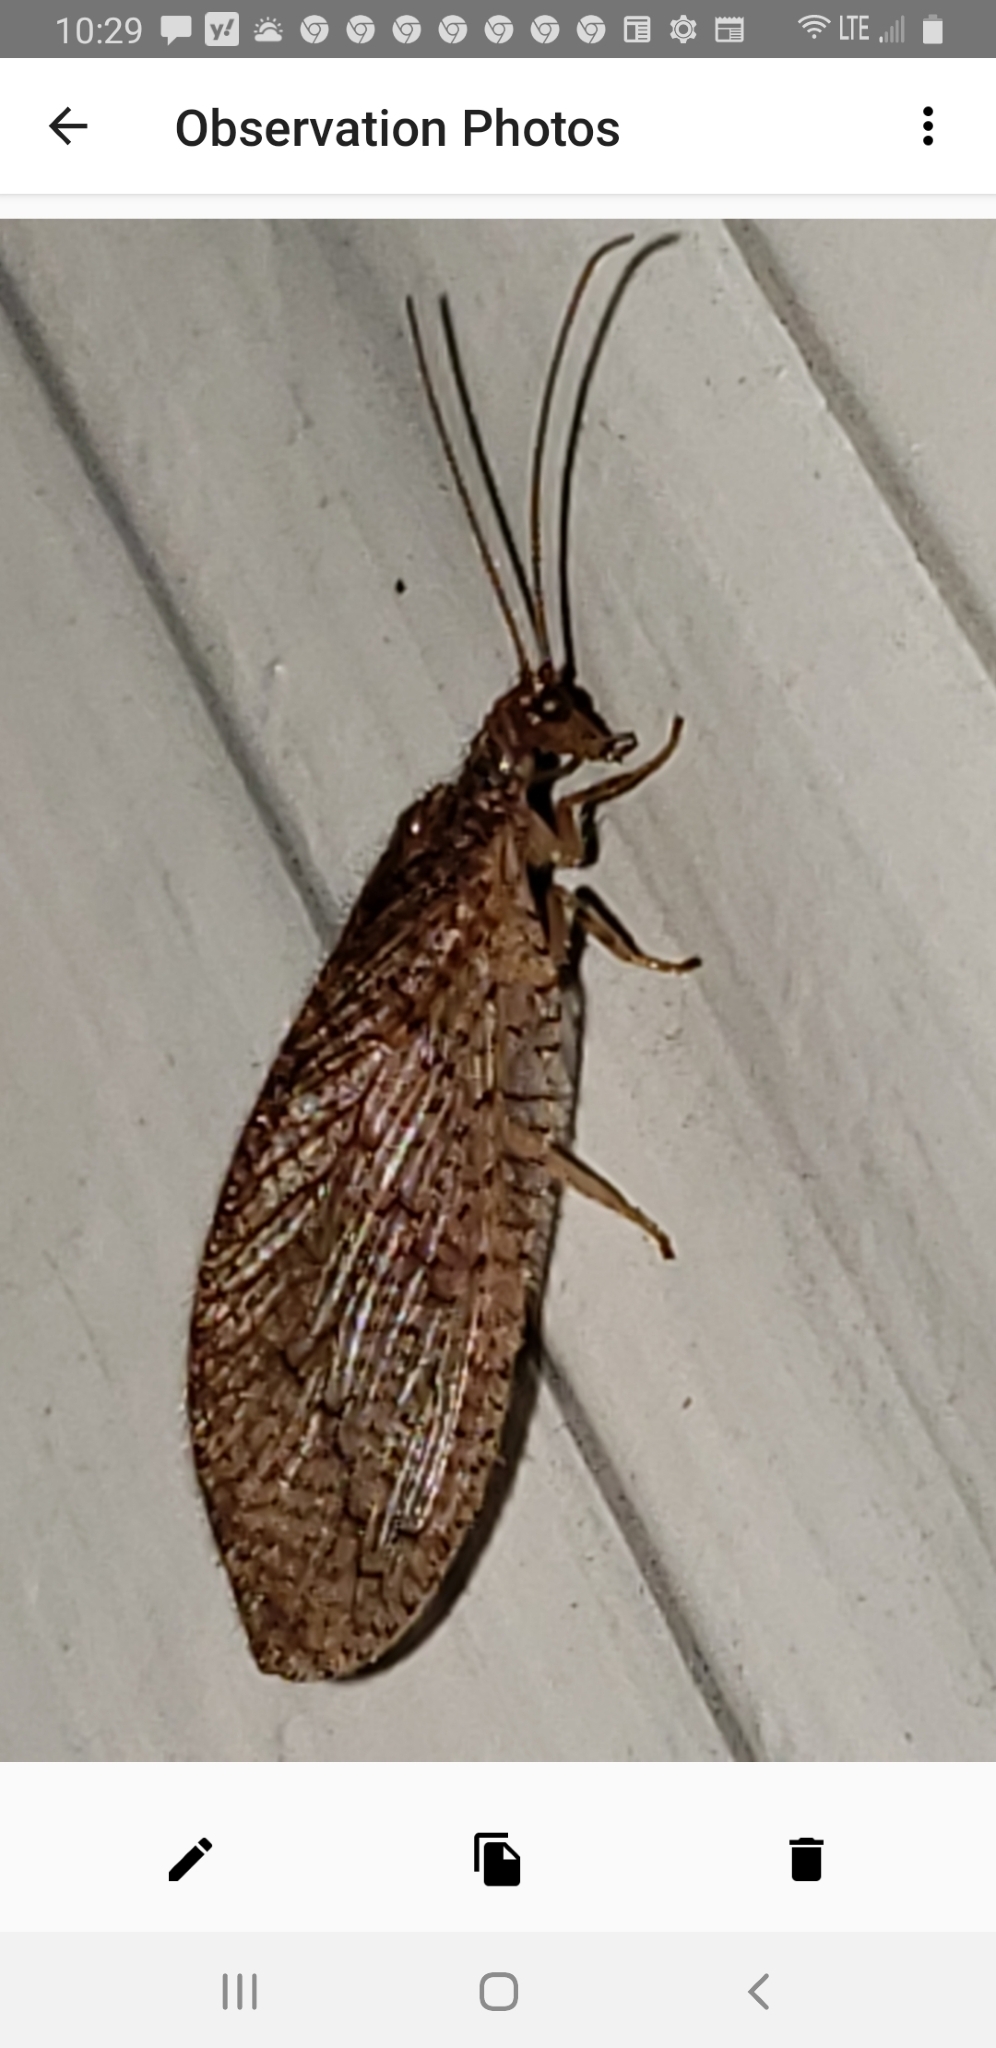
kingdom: Animalia
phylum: Arthropoda
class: Insecta
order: Neuroptera
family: Hemerobiidae
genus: Micromus
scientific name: Micromus posticus
